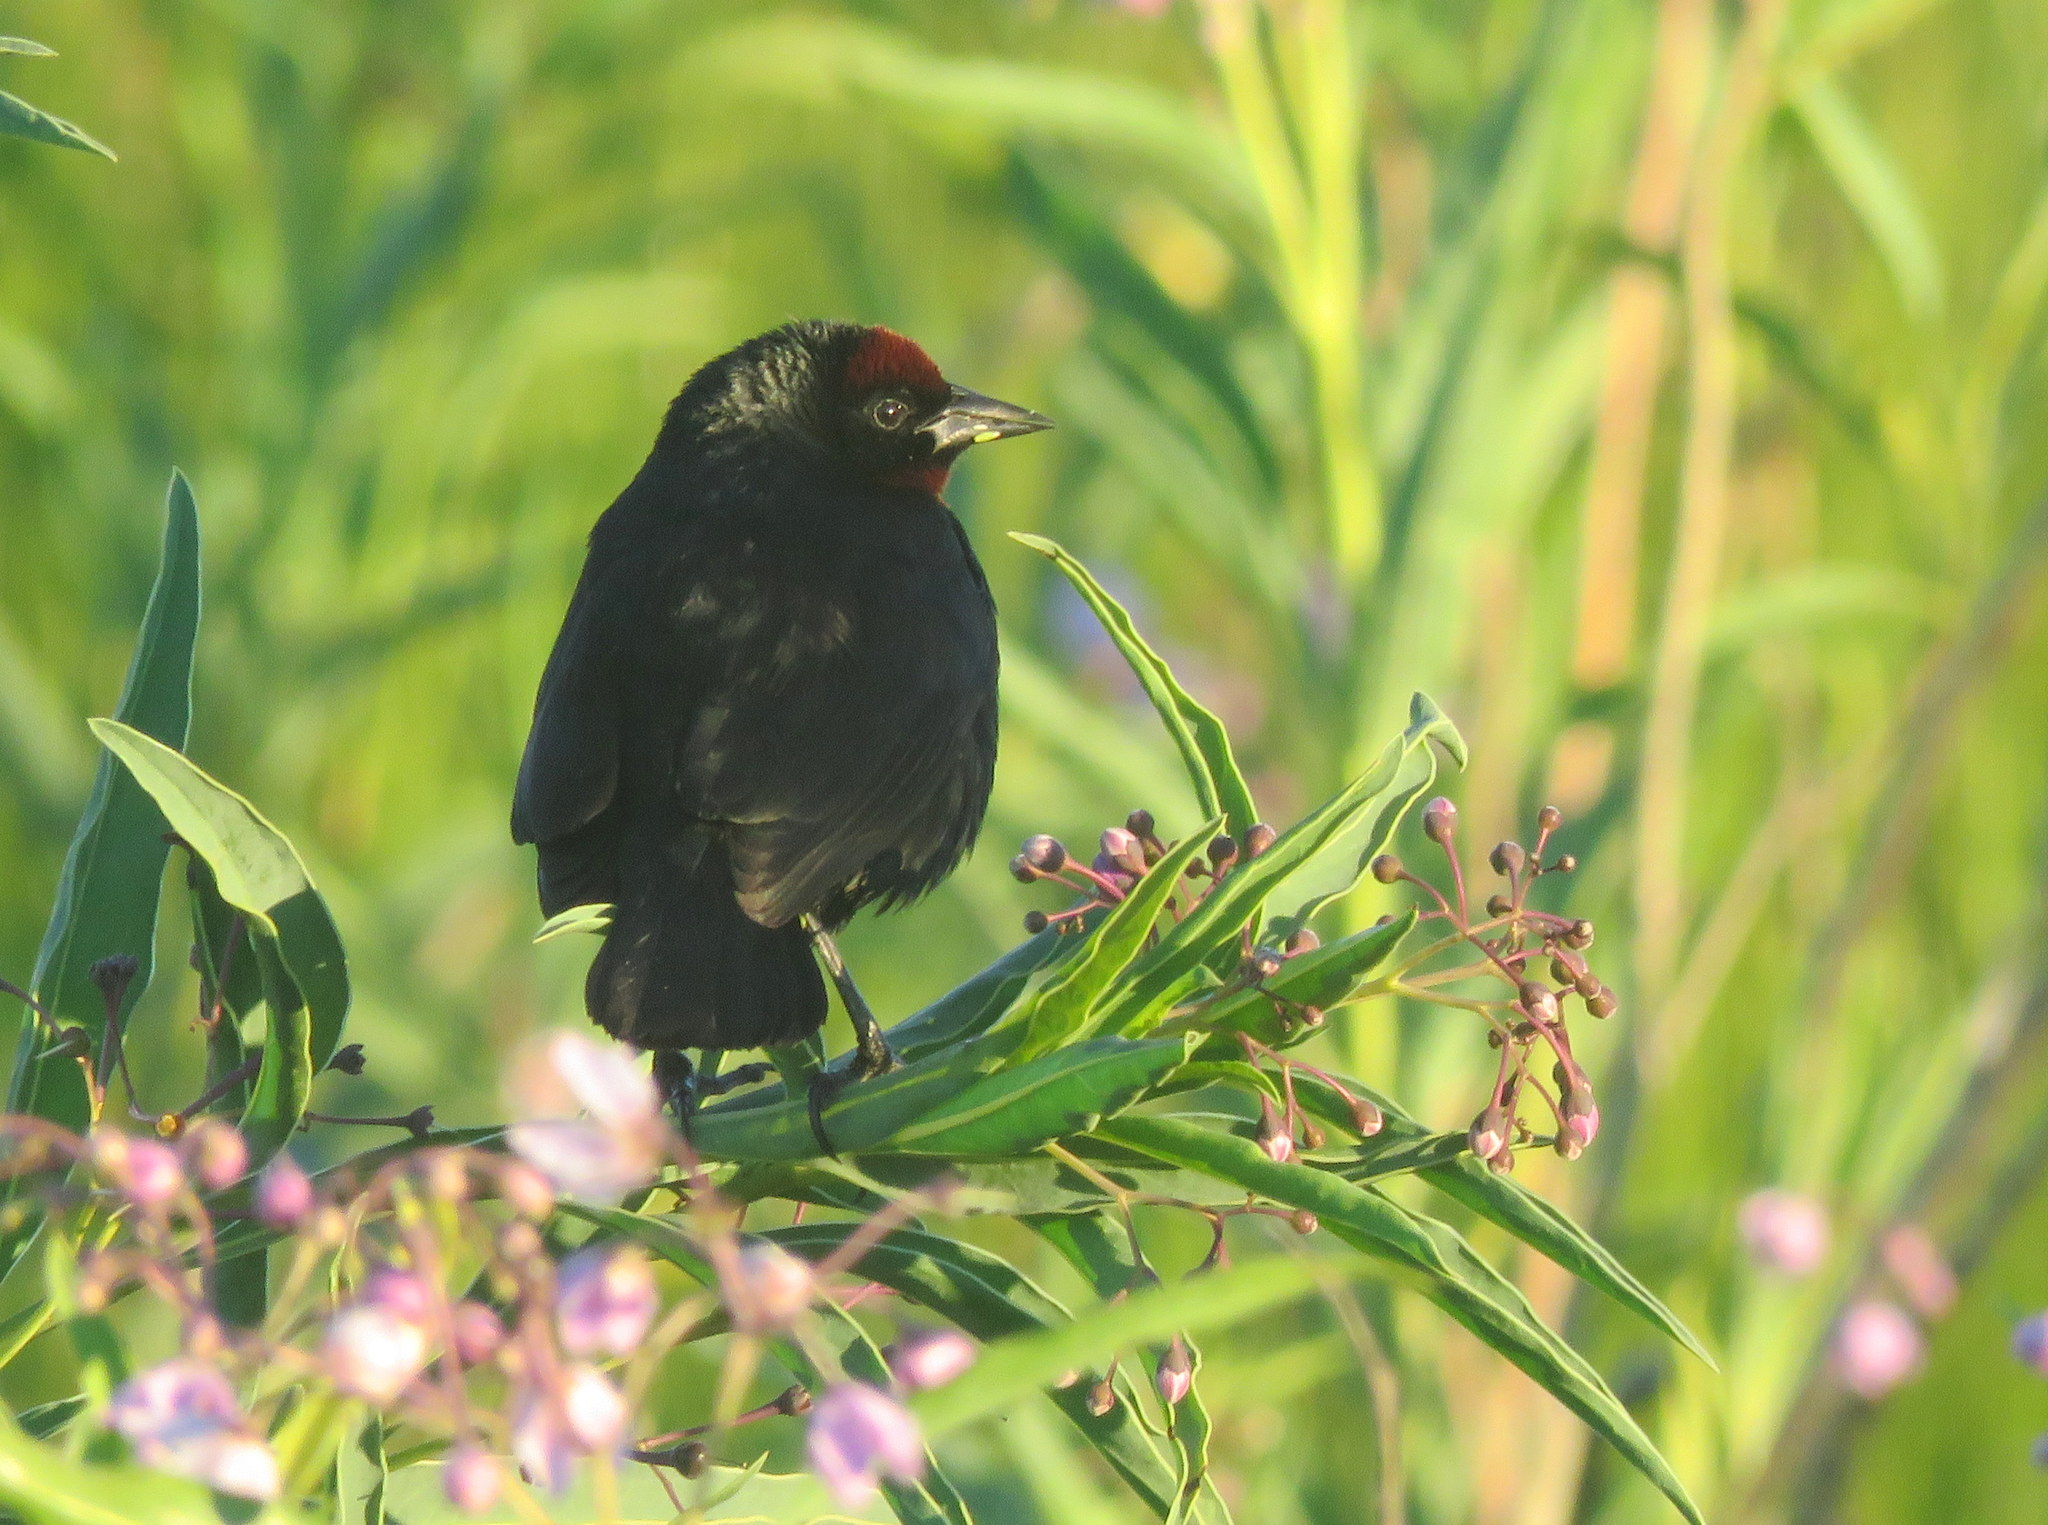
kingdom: Animalia
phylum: Chordata
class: Aves
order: Passeriformes
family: Icteridae
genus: Chrysomus
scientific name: Chrysomus ruficapillus
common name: Chestnut-capped blackbird
